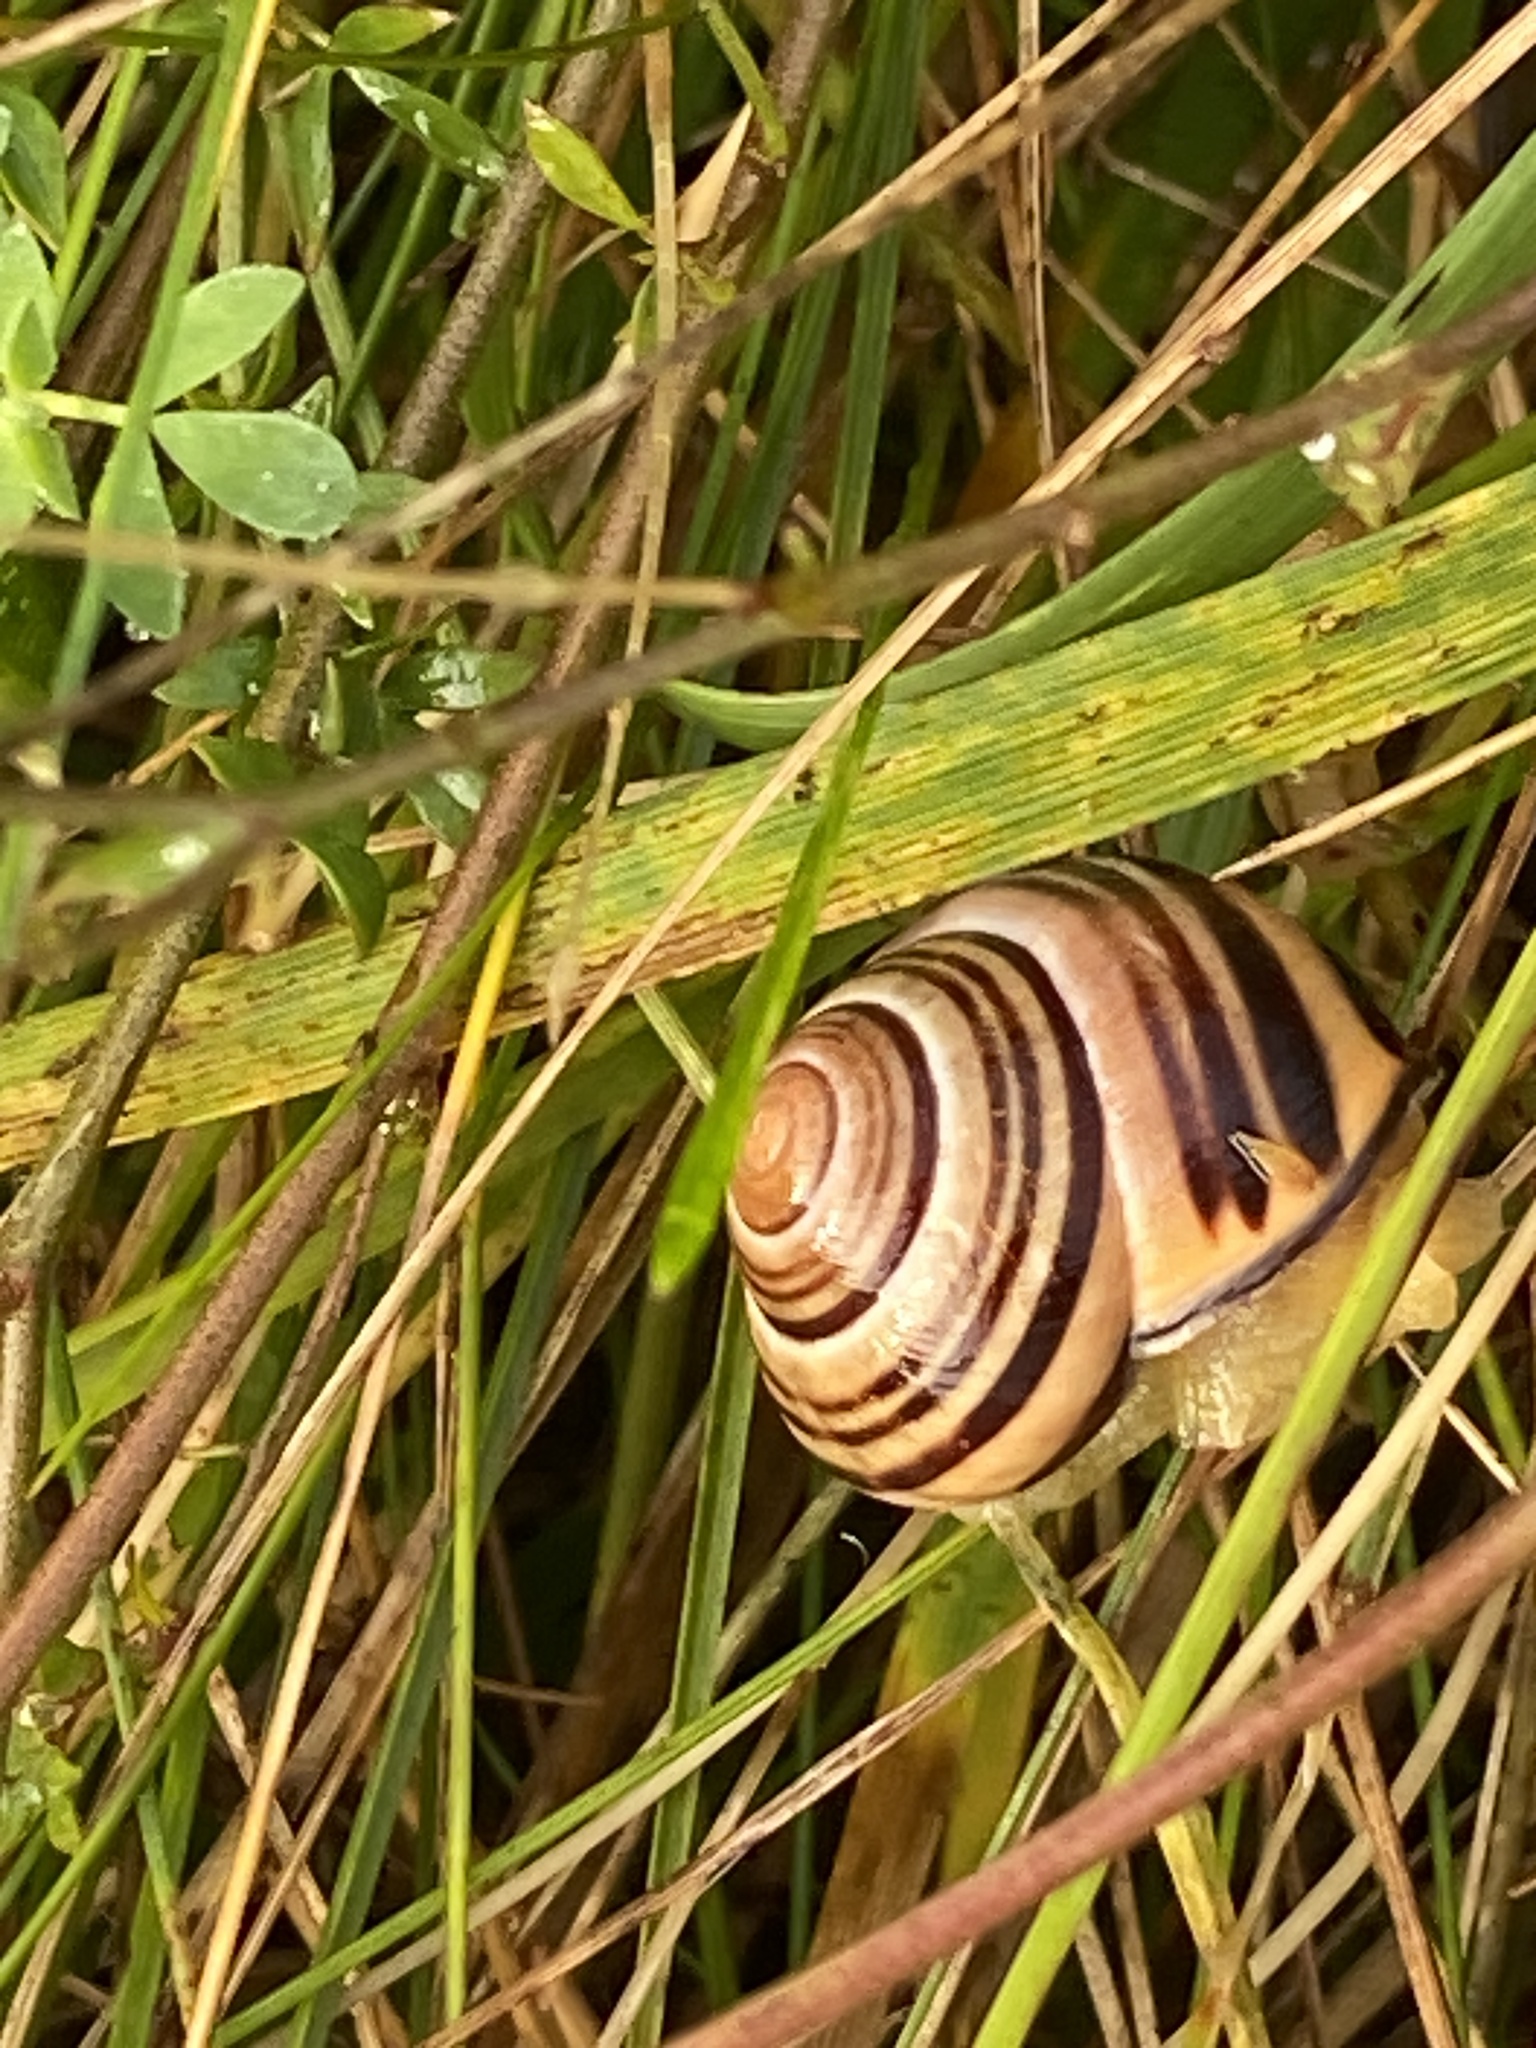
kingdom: Animalia
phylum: Mollusca
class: Gastropoda
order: Stylommatophora
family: Helicidae
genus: Cepaea
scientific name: Cepaea nemoralis
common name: Grovesnail
